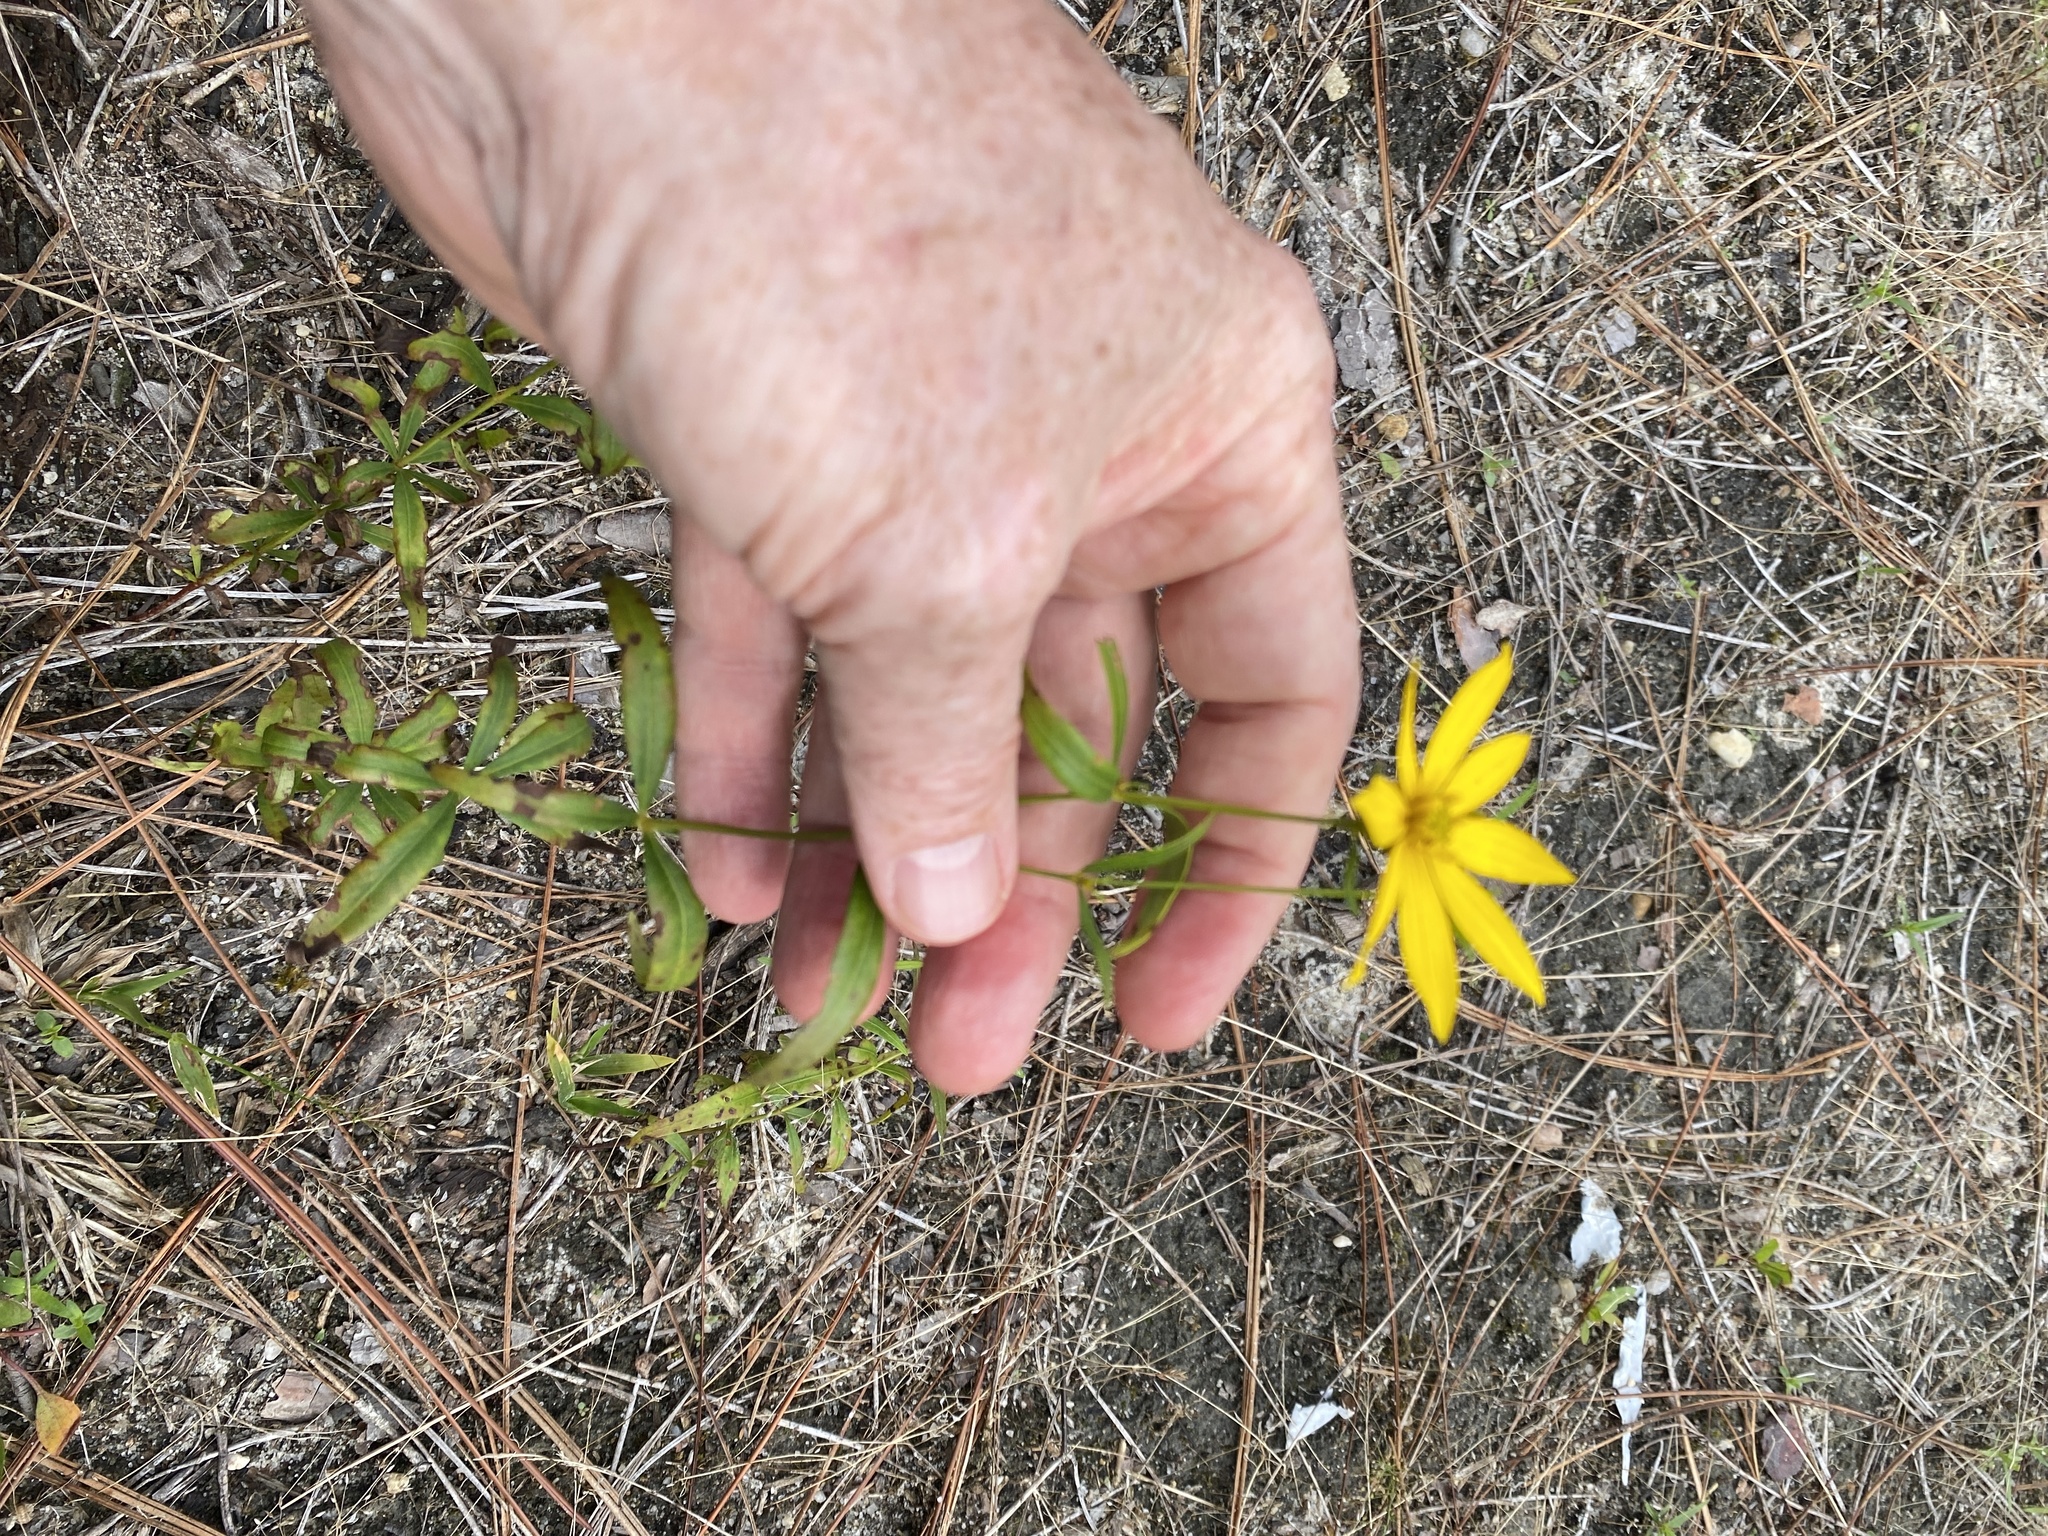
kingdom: Plantae
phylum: Tracheophyta
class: Magnoliopsida
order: Asterales
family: Asteraceae
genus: Coreopsis
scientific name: Coreopsis major
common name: Forest tickseed
